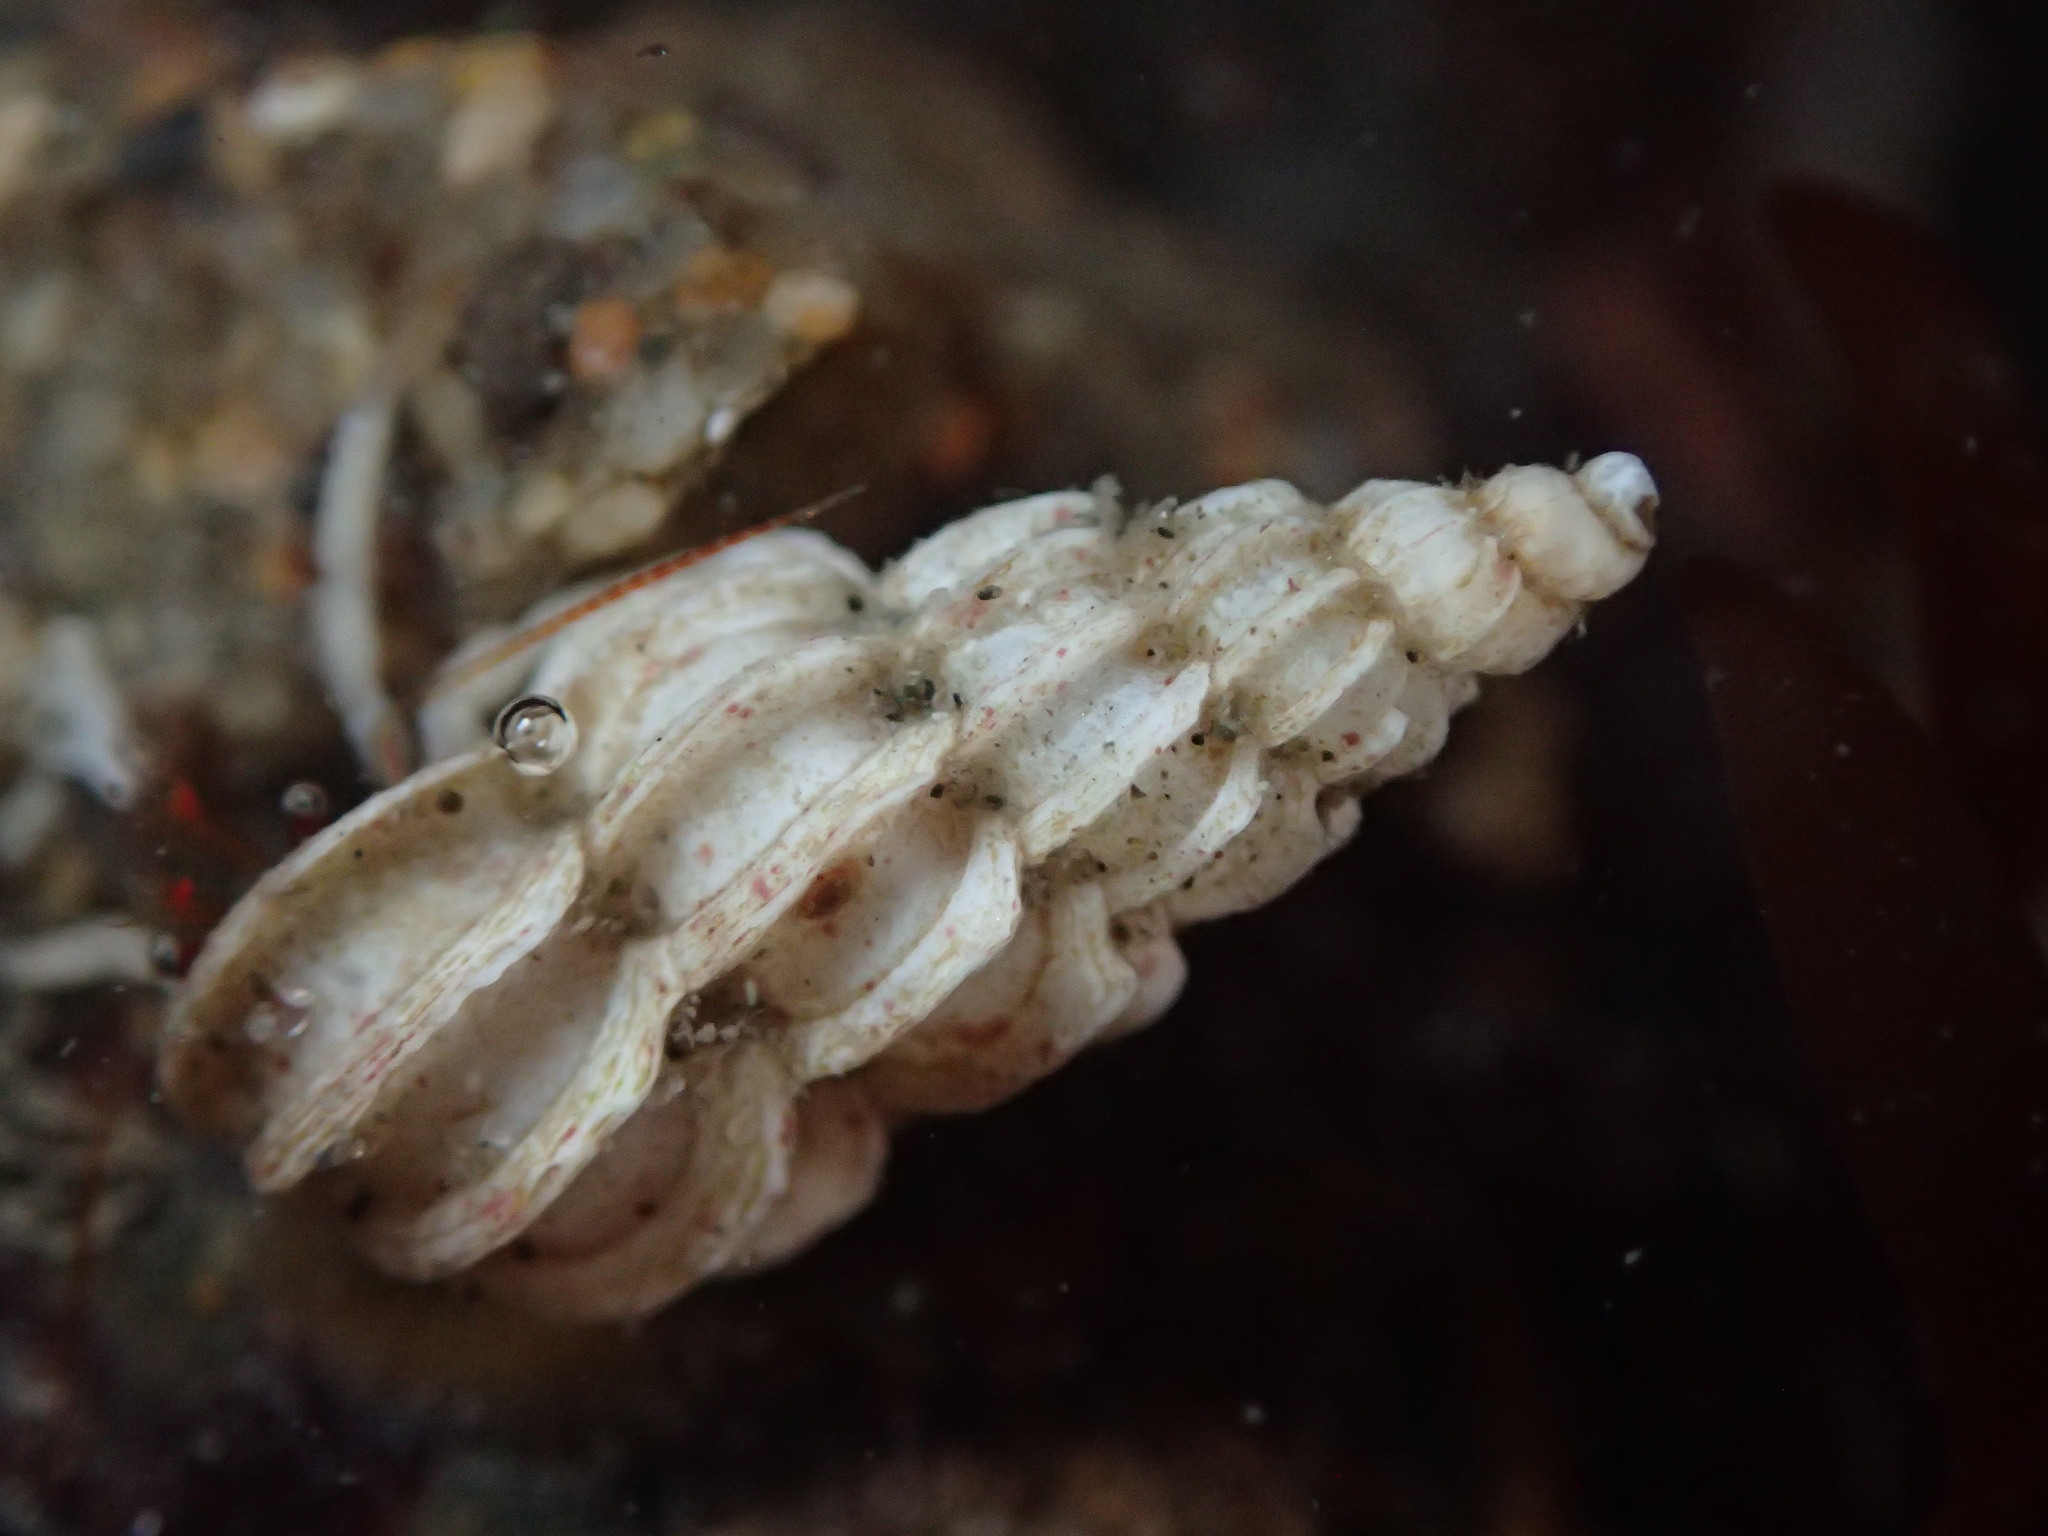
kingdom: Animalia
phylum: Mollusca
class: Gastropoda
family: Epitoniidae
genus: Epitonium
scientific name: Epitonium tinctum
